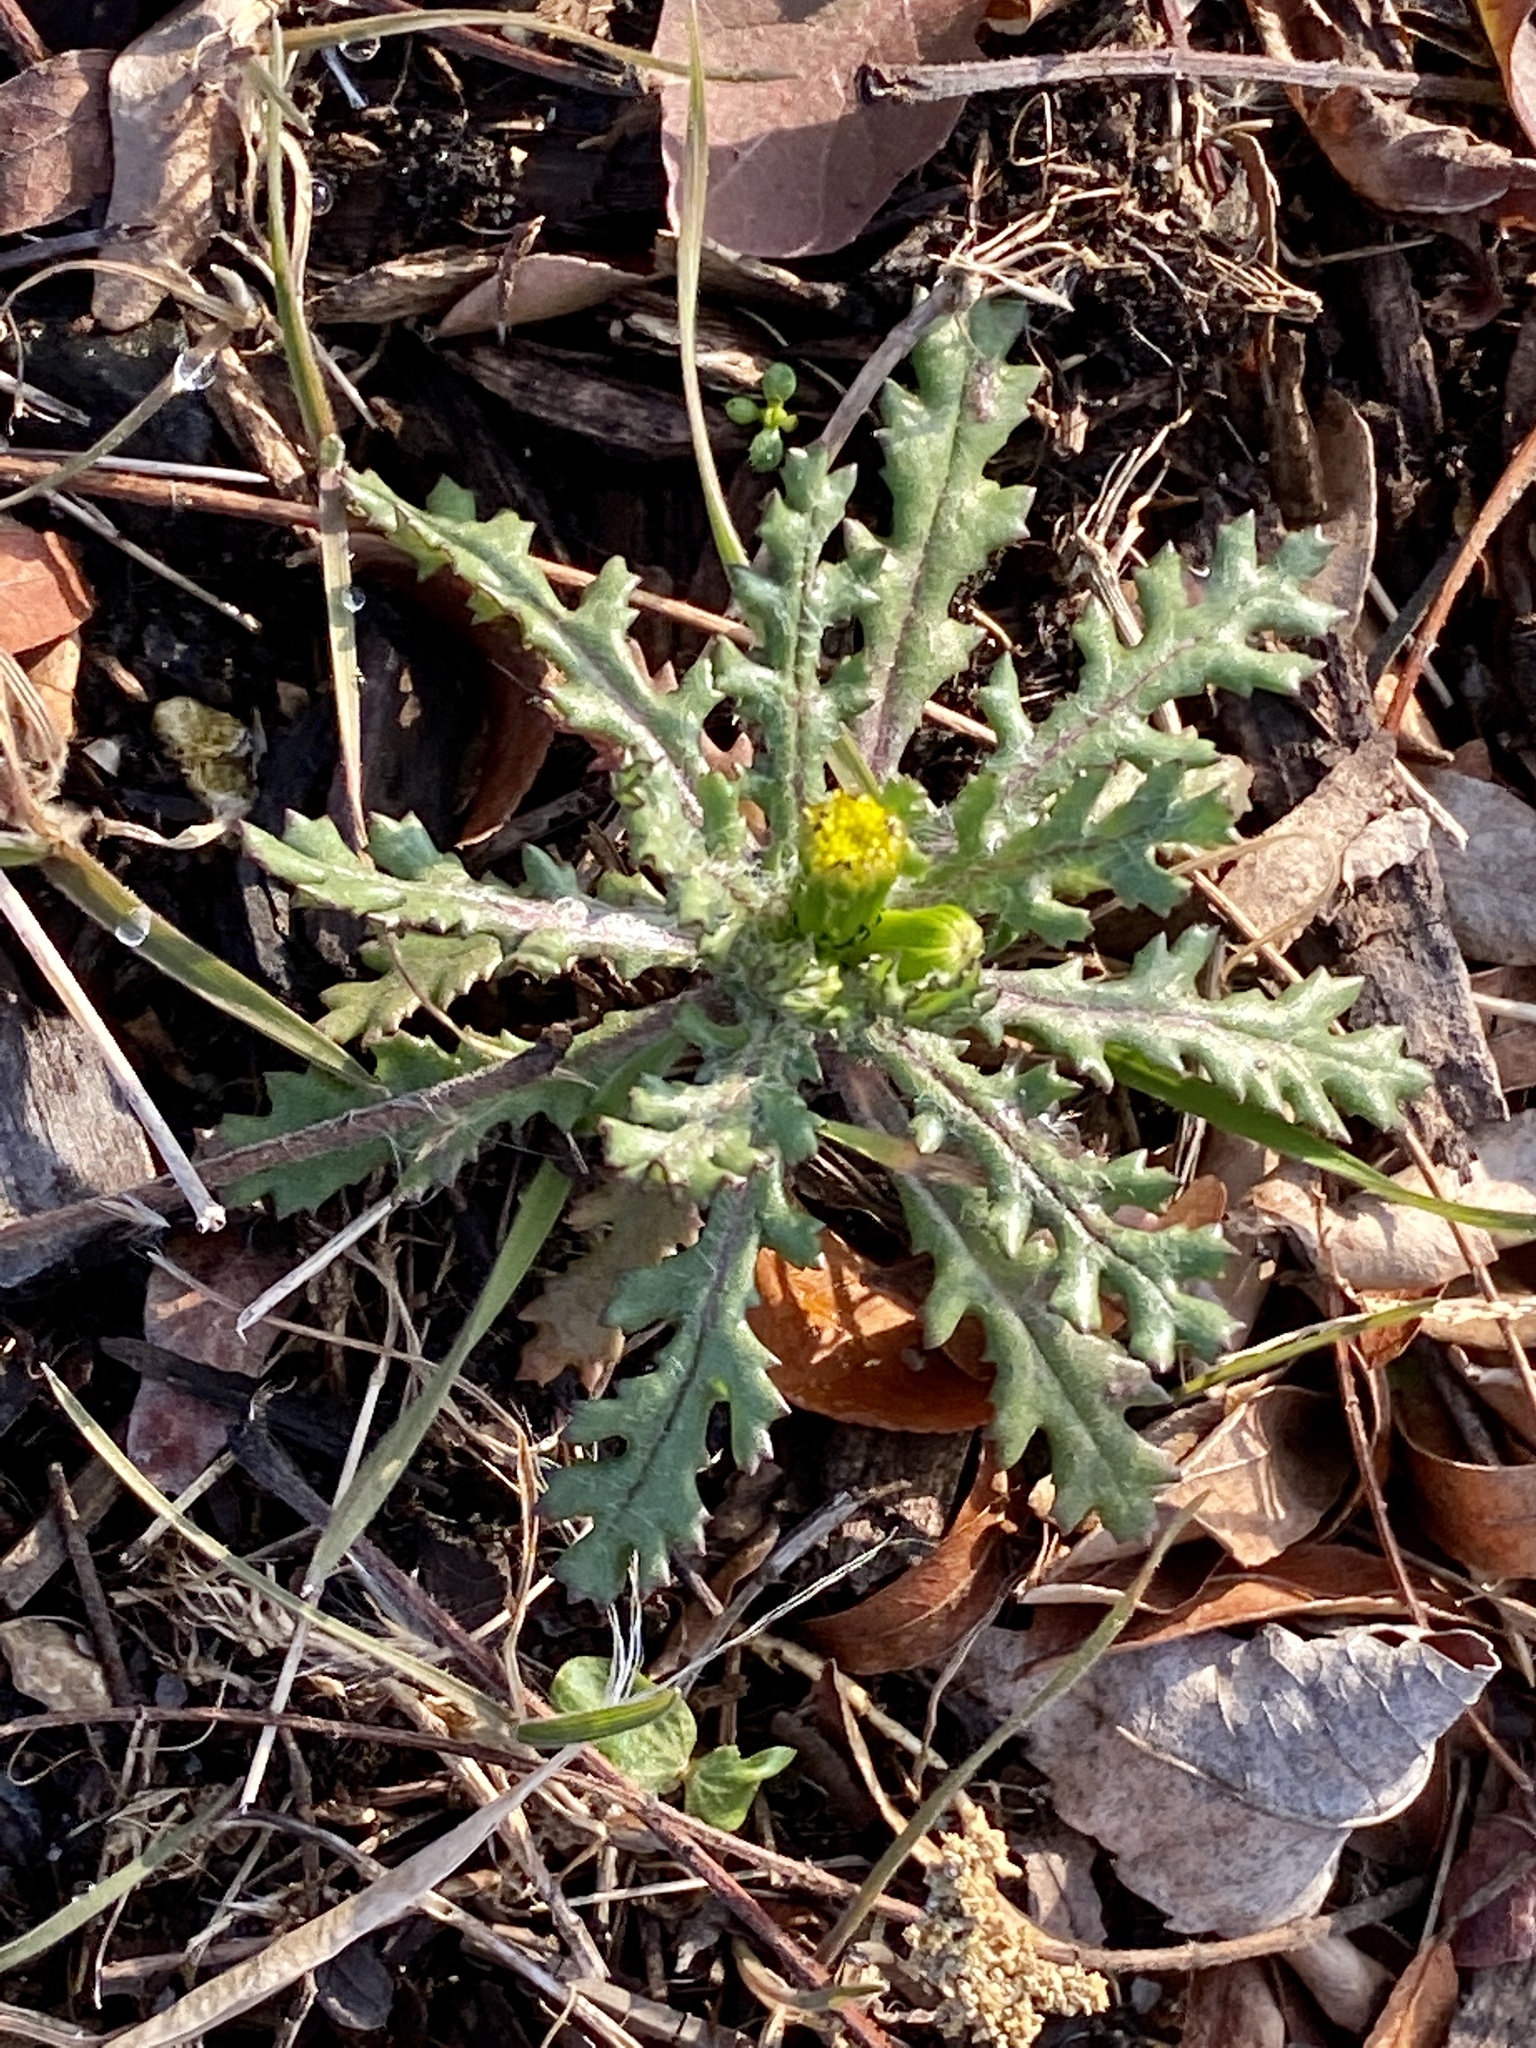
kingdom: Plantae
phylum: Tracheophyta
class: Magnoliopsida
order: Asterales
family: Asteraceae
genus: Senecio
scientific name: Senecio vulgaris
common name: Old-man-in-the-spring
